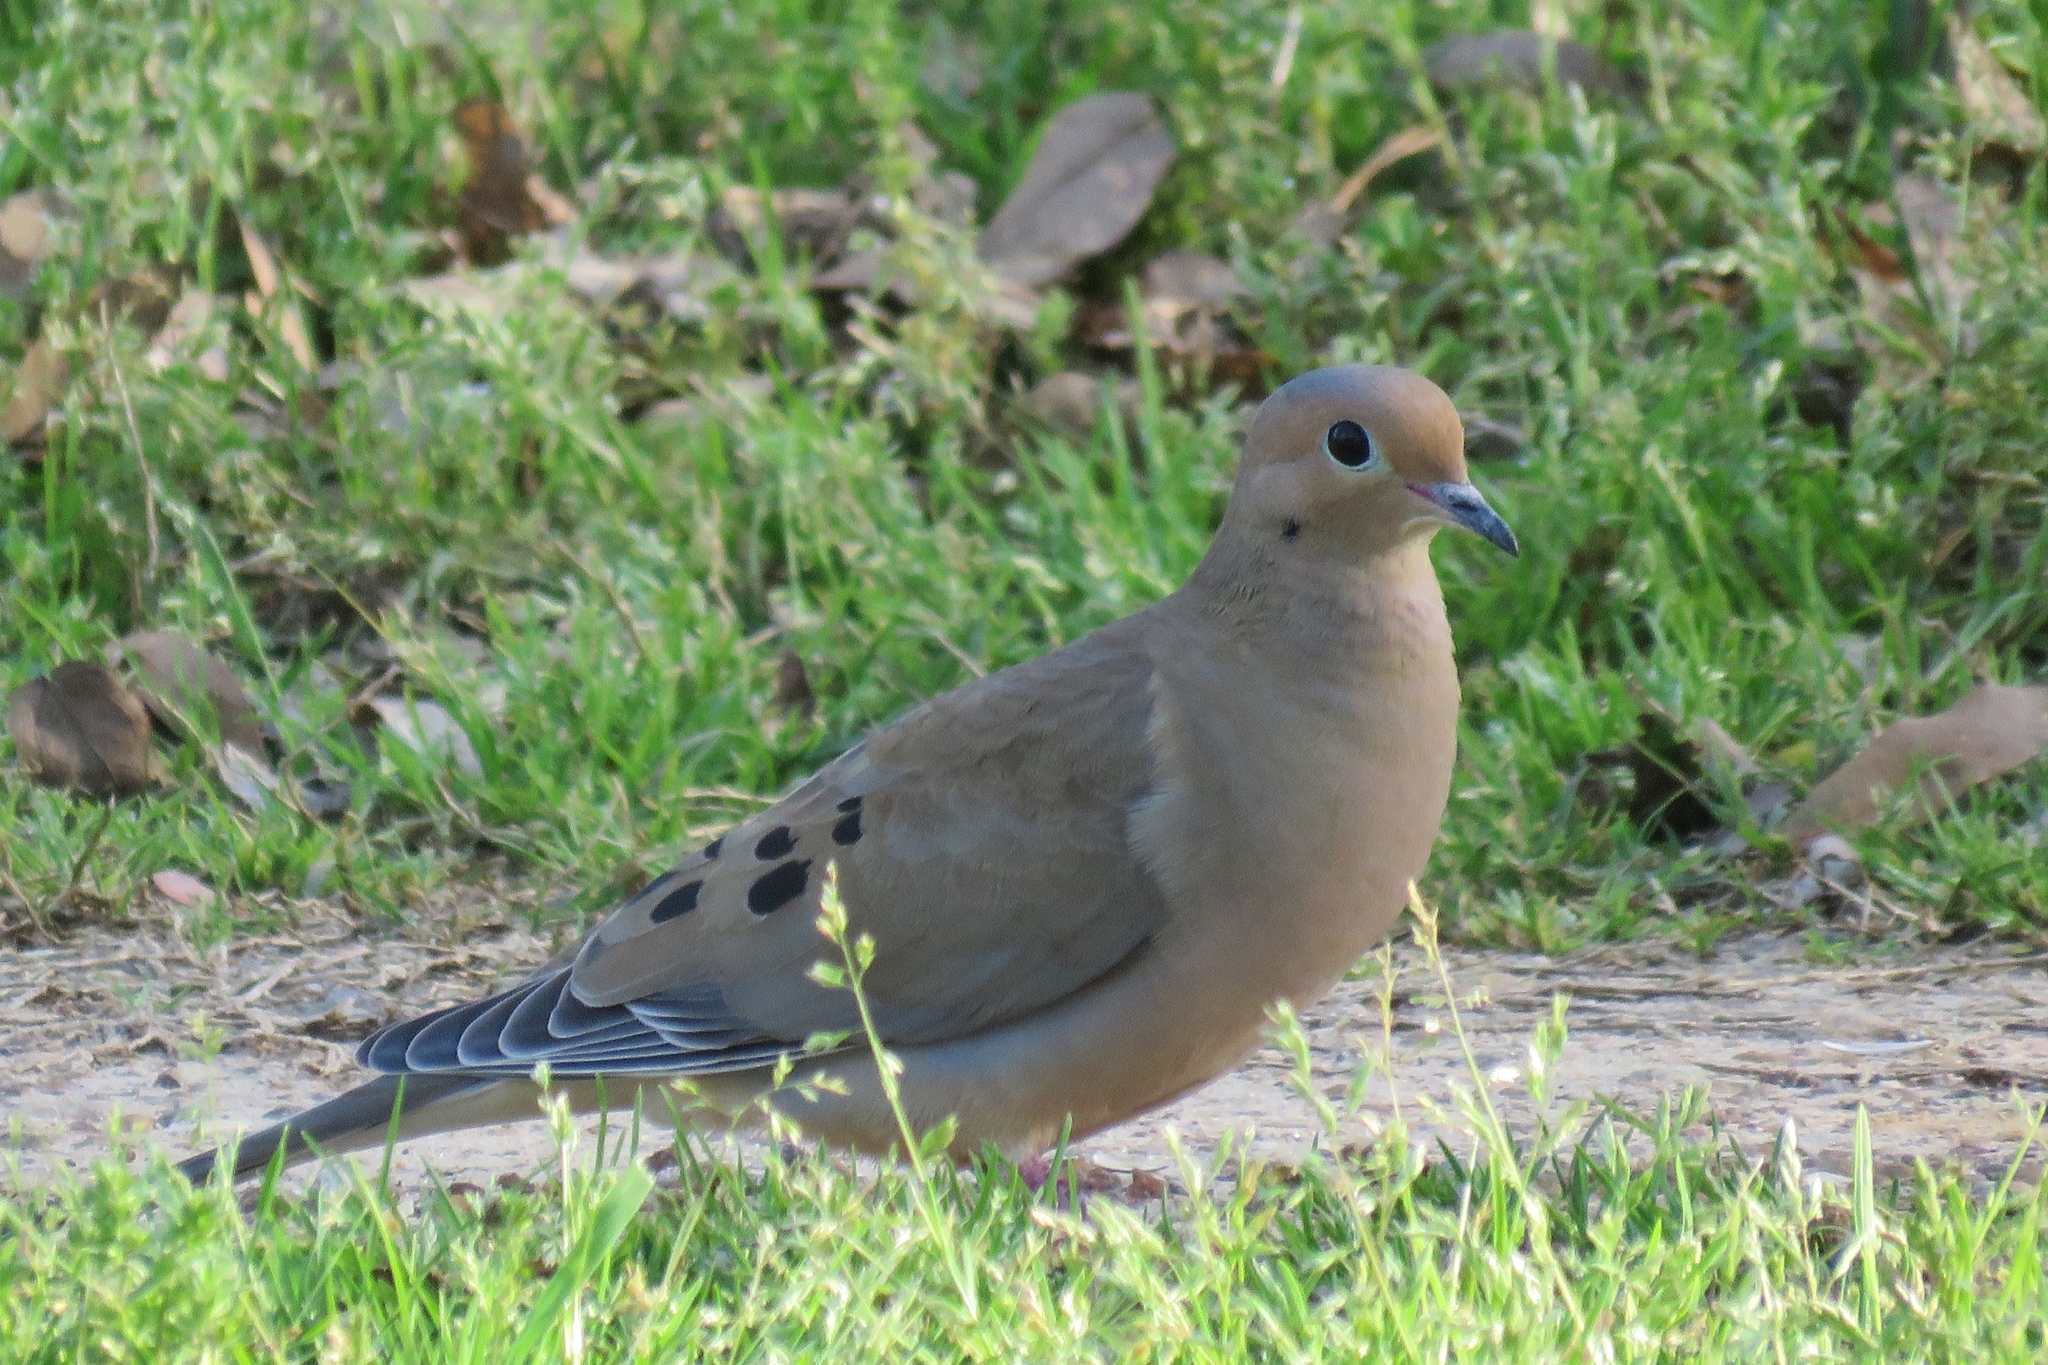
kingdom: Animalia
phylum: Chordata
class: Aves
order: Columbiformes
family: Columbidae
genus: Zenaida
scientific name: Zenaida macroura
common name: Mourning dove
